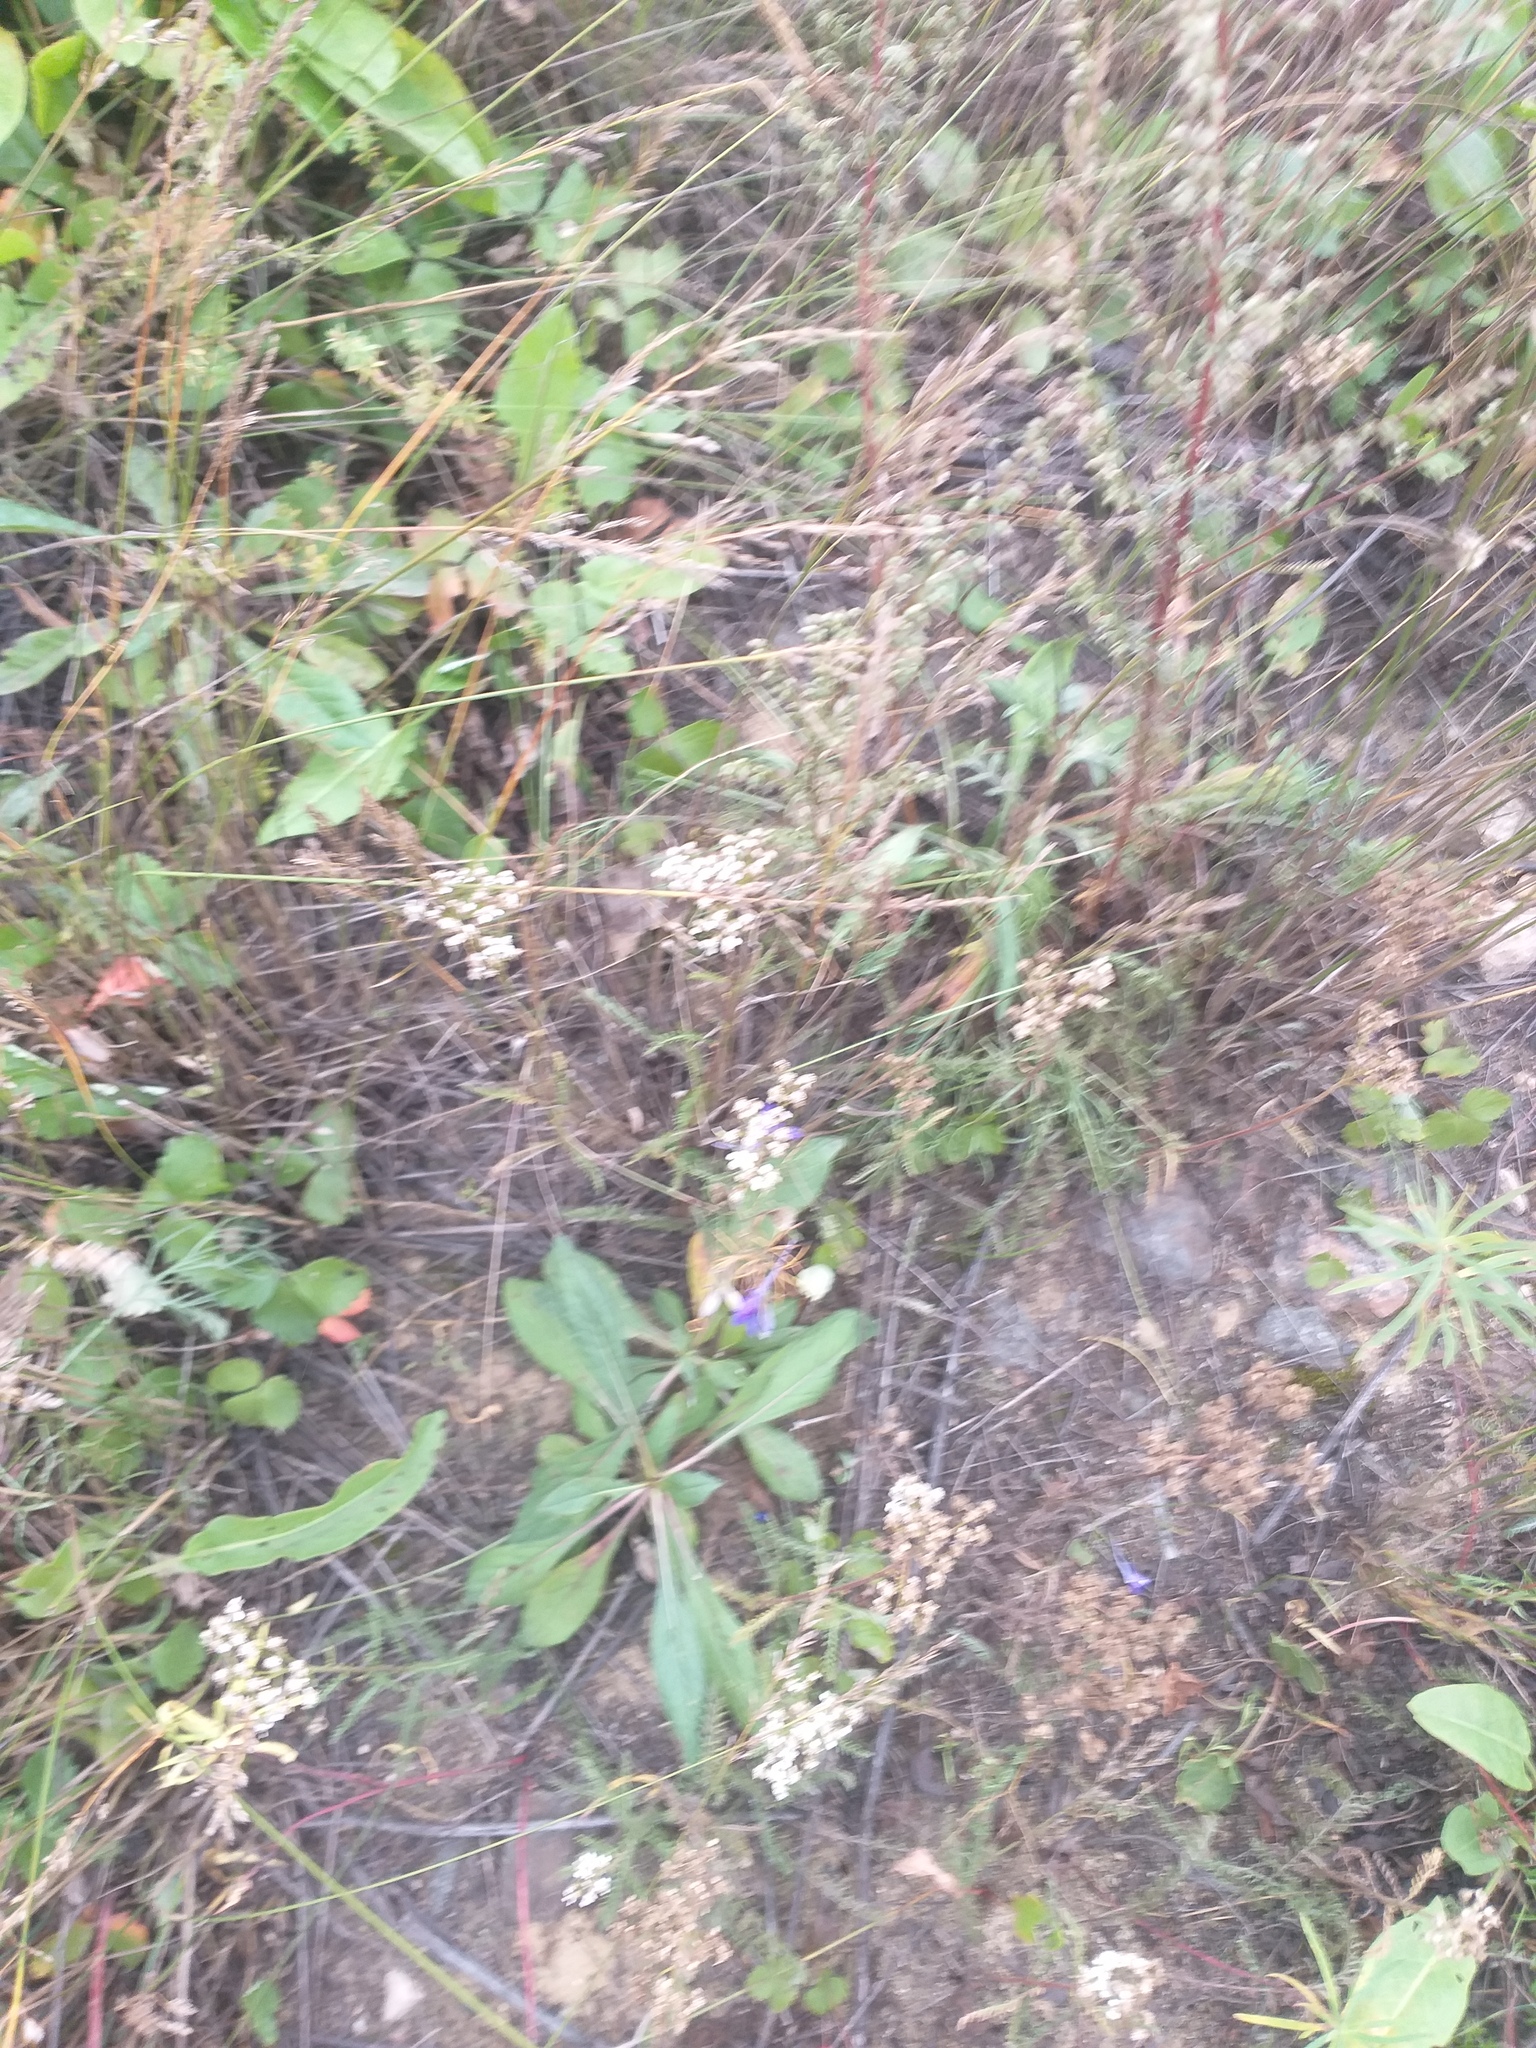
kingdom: Plantae
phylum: Tracheophyta
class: Magnoliopsida
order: Asterales
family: Asteraceae
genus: Achillea
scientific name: Achillea millefolium
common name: Yarrow
